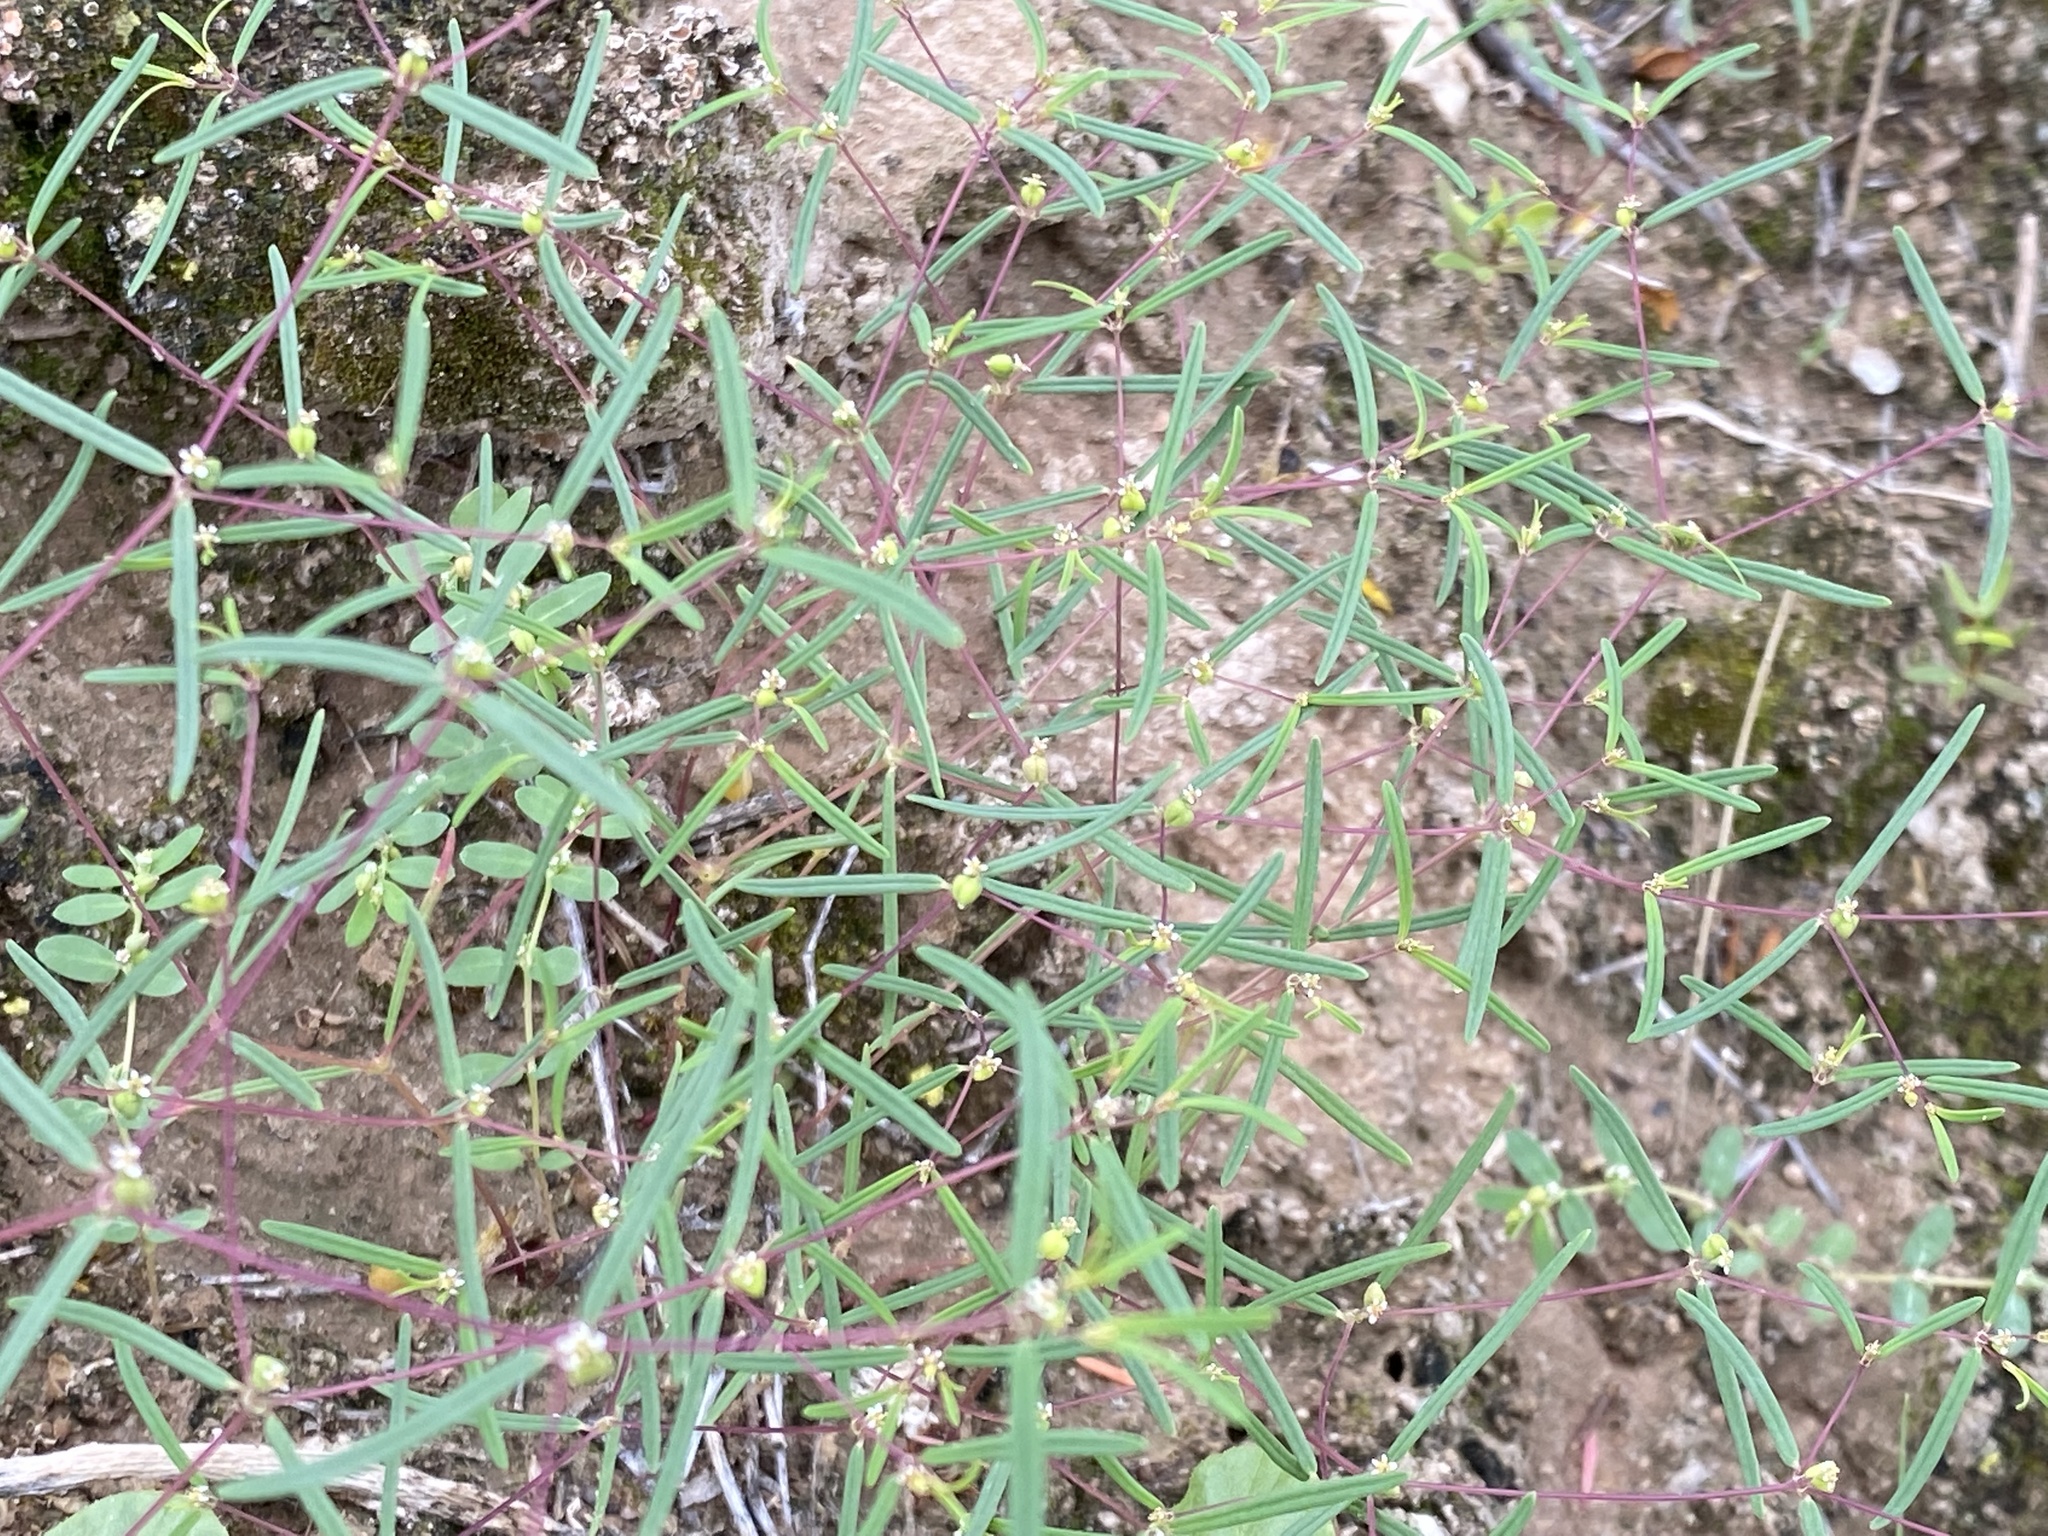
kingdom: Plantae
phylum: Tracheophyta
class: Magnoliopsida
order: Malpighiales
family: Euphorbiaceae
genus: Euphorbia
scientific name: Euphorbia revoluta
